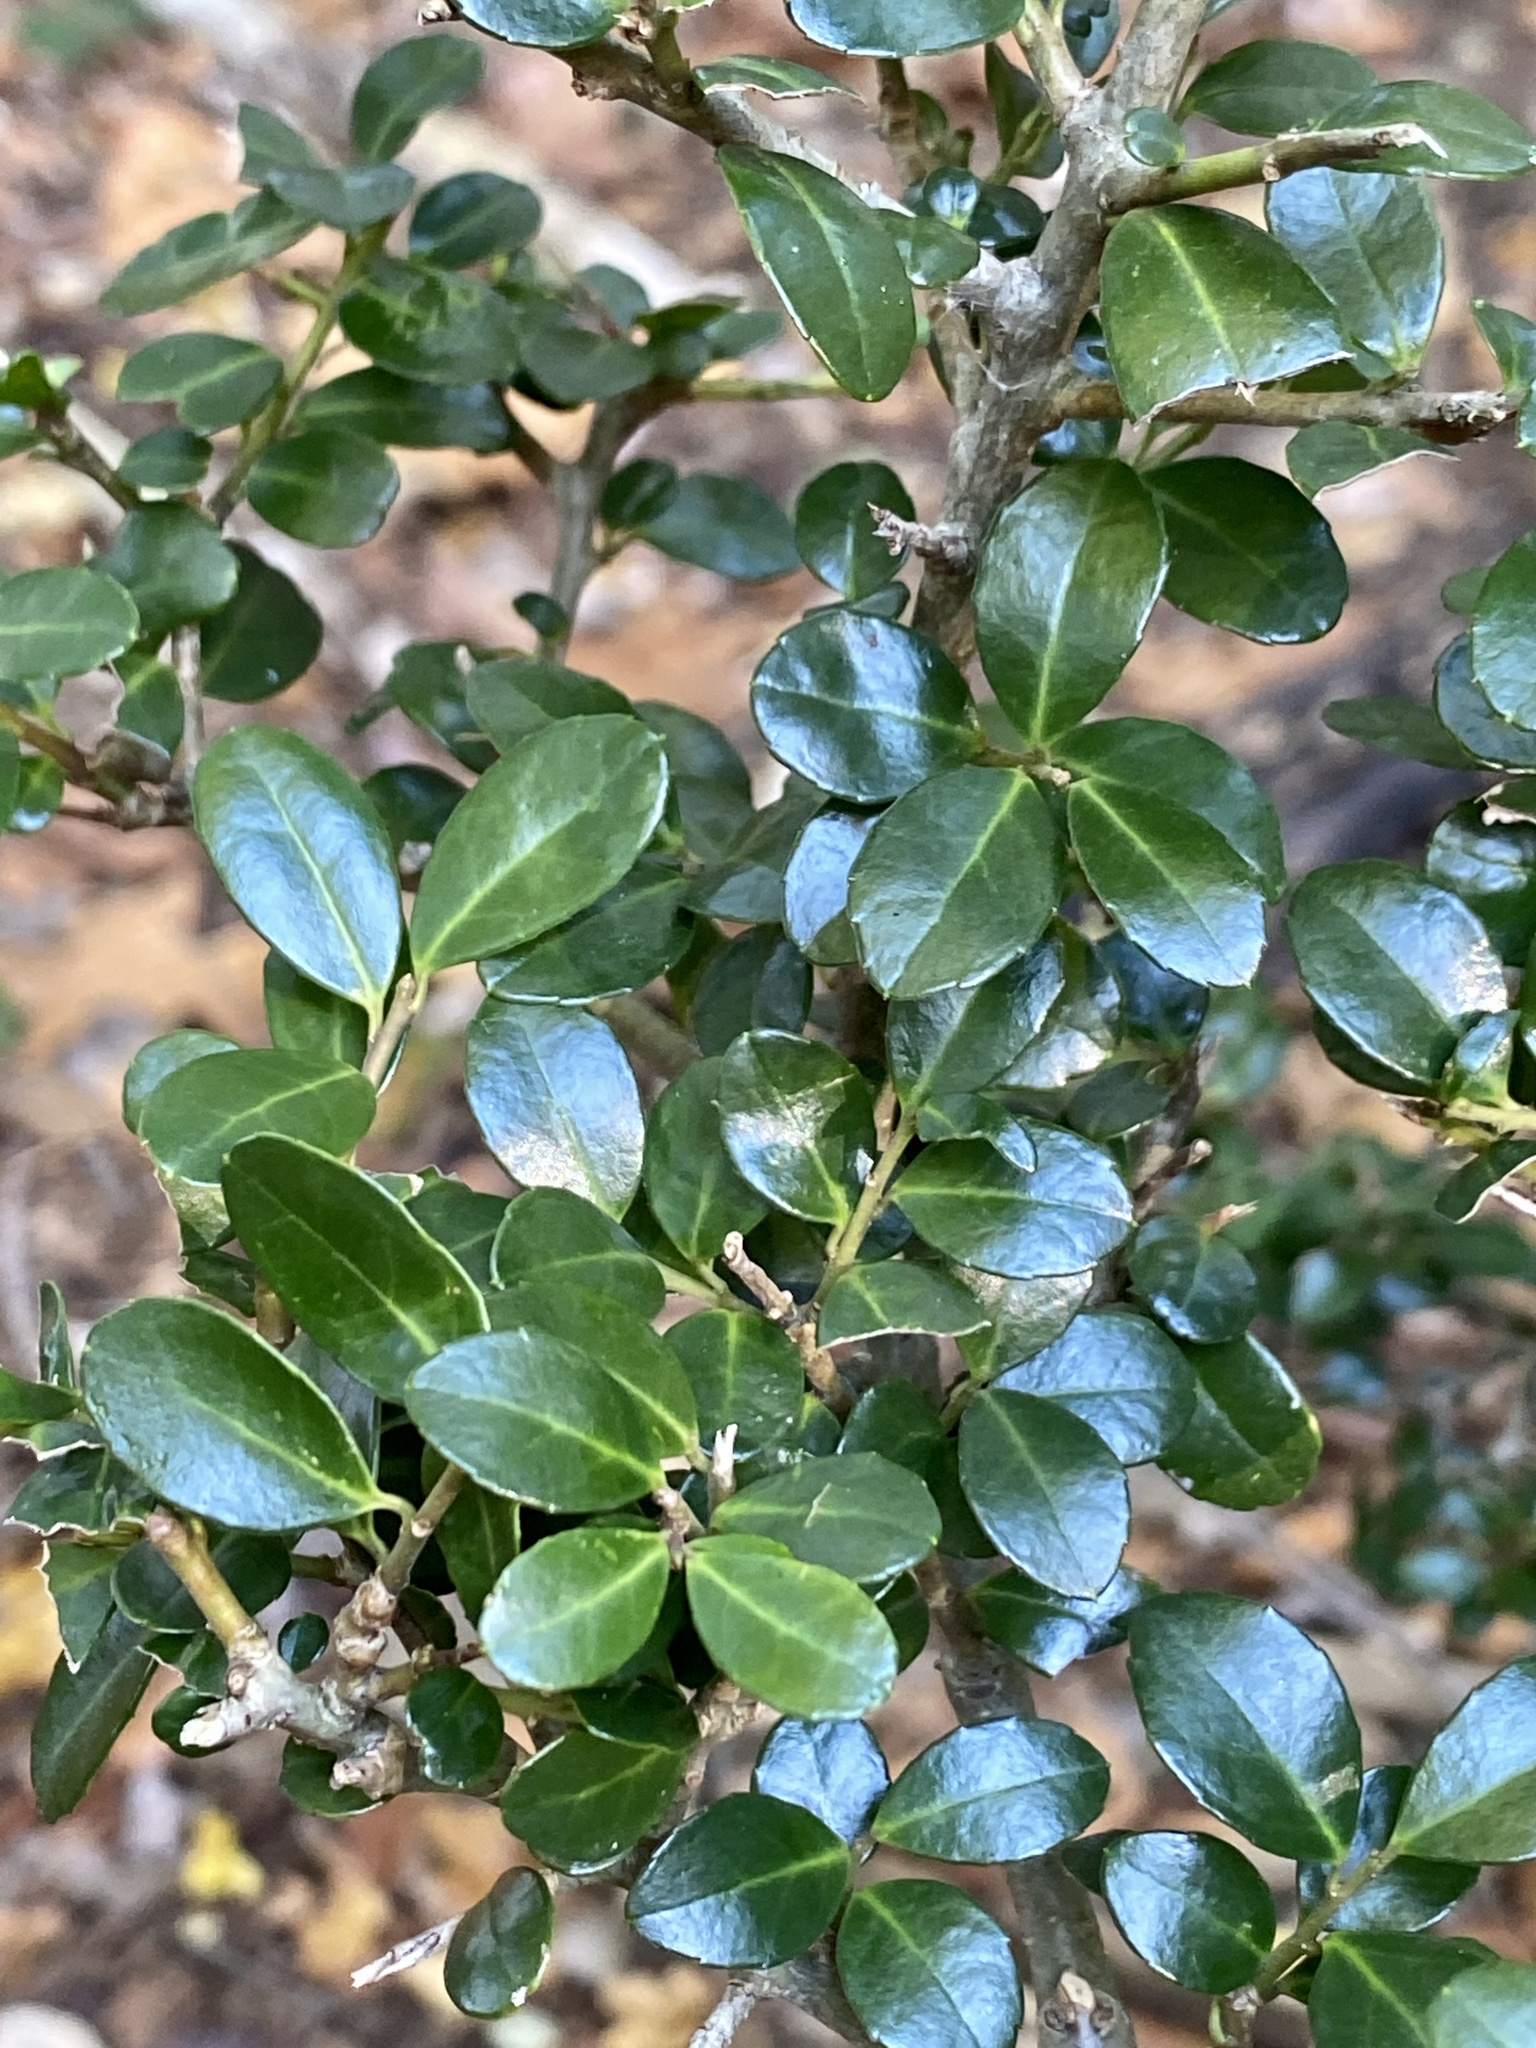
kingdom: Plantae
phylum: Tracheophyta
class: Magnoliopsida
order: Aquifoliales
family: Aquifoliaceae
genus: Ilex
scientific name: Ilex crenata
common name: Japanese holly
